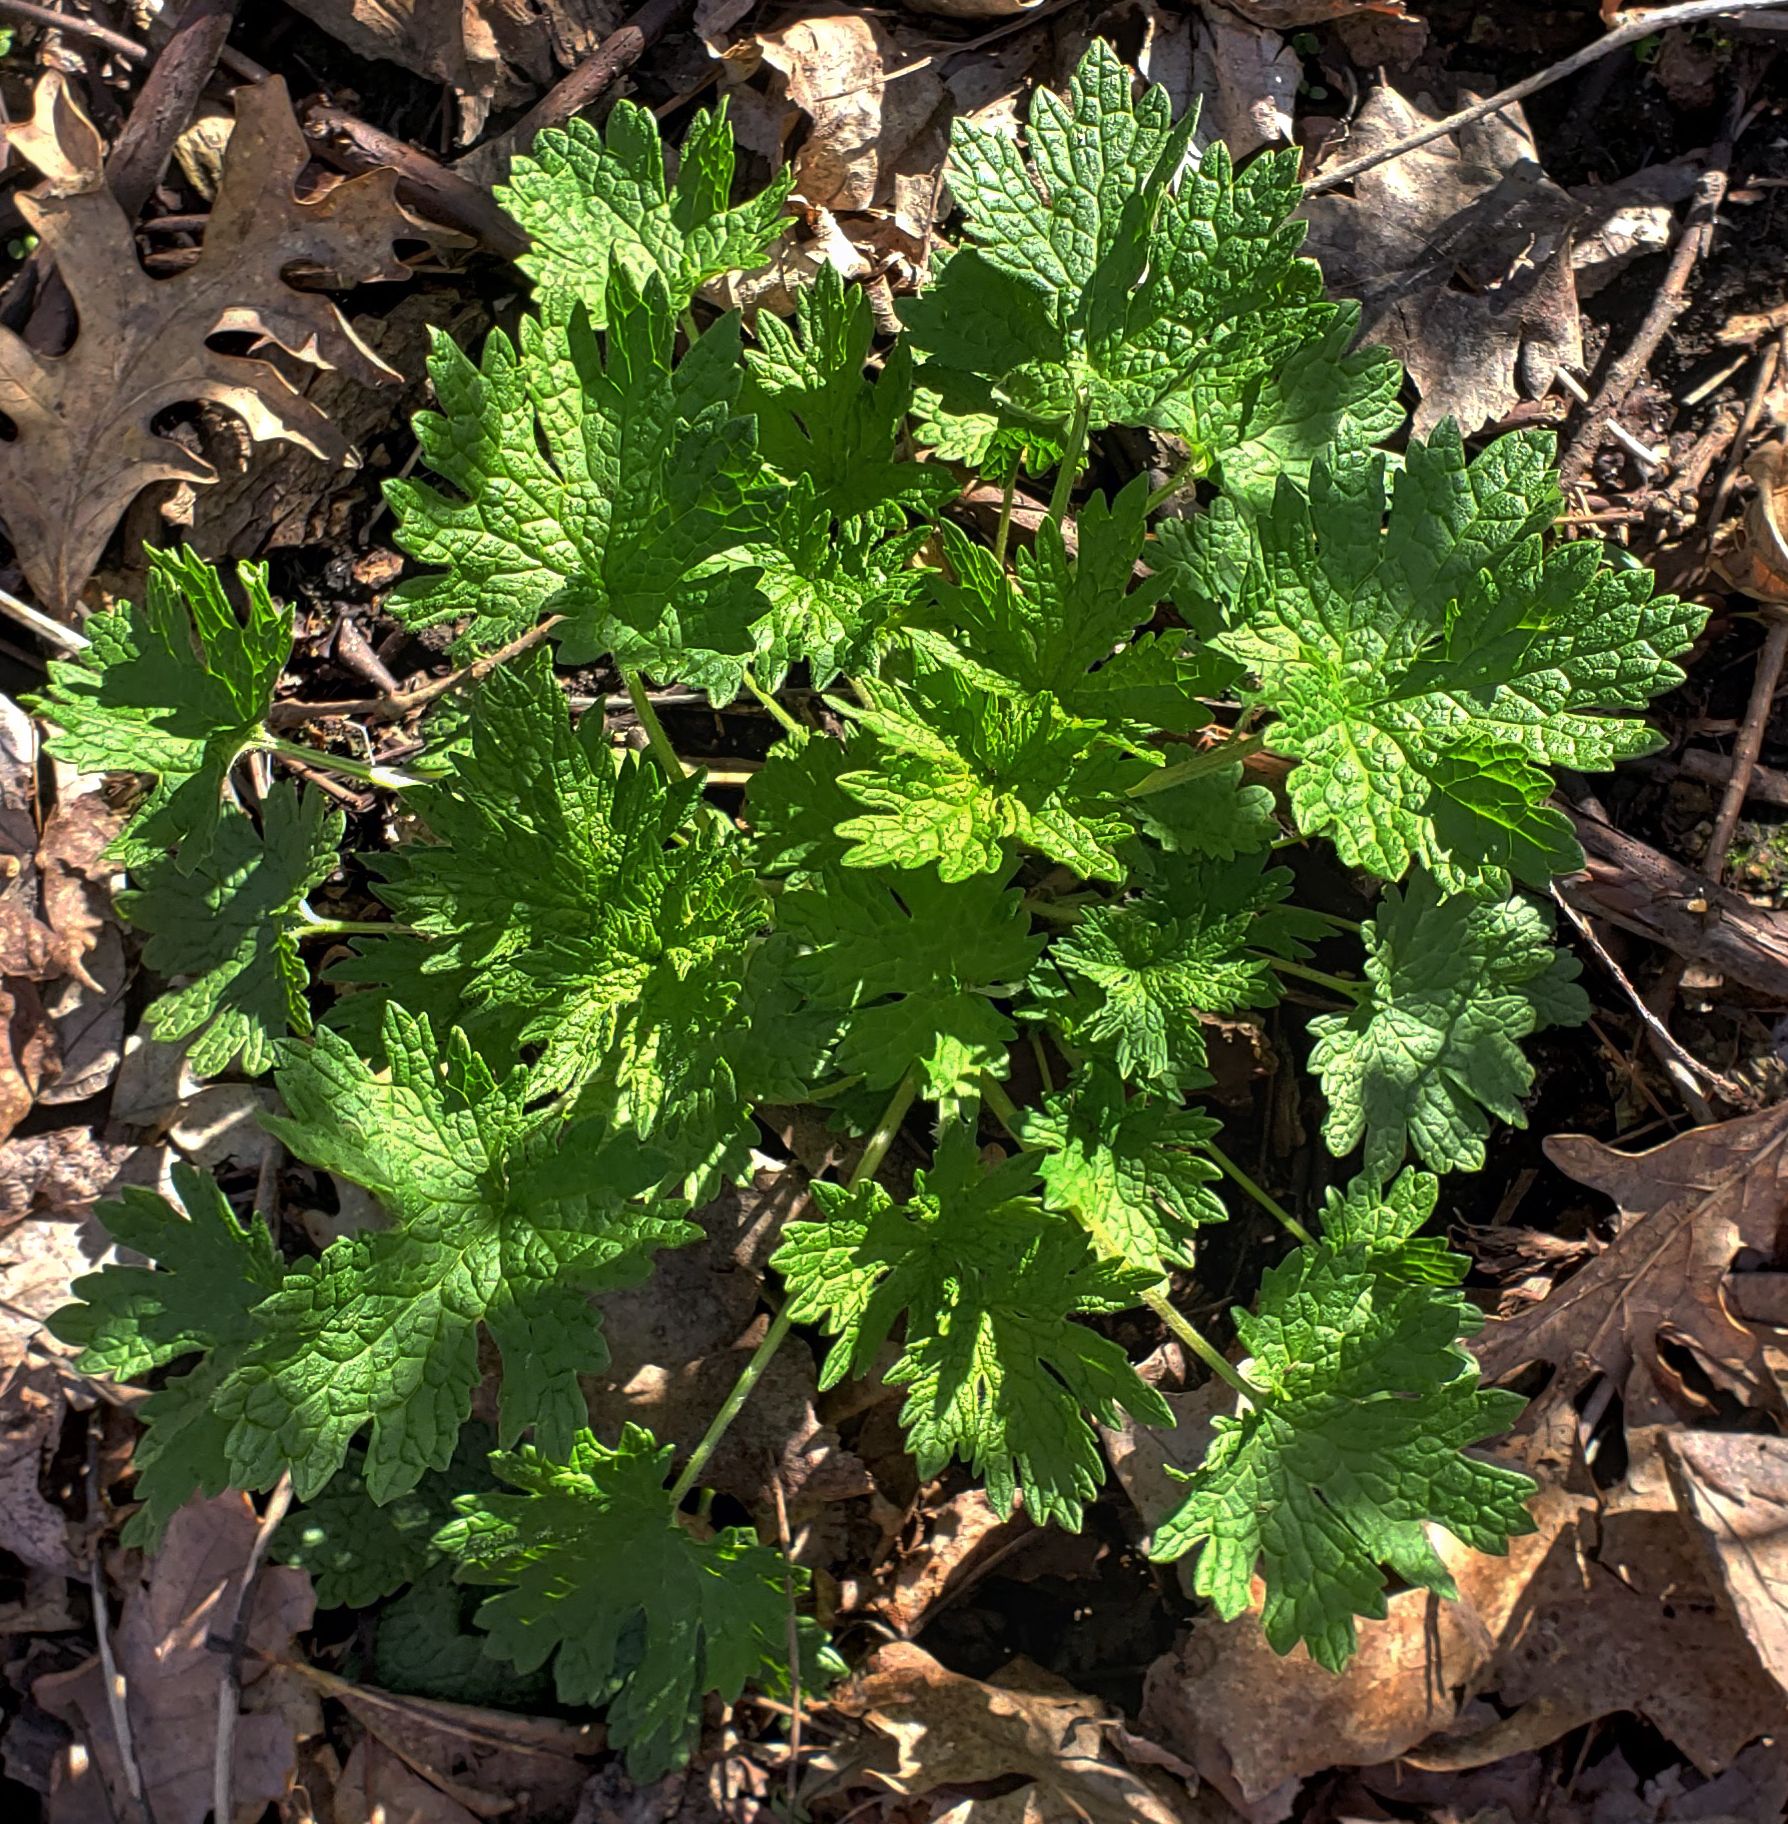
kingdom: Plantae
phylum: Tracheophyta
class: Magnoliopsida
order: Lamiales
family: Lamiaceae
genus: Leonurus
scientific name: Leonurus cardiaca
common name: Motherwort
